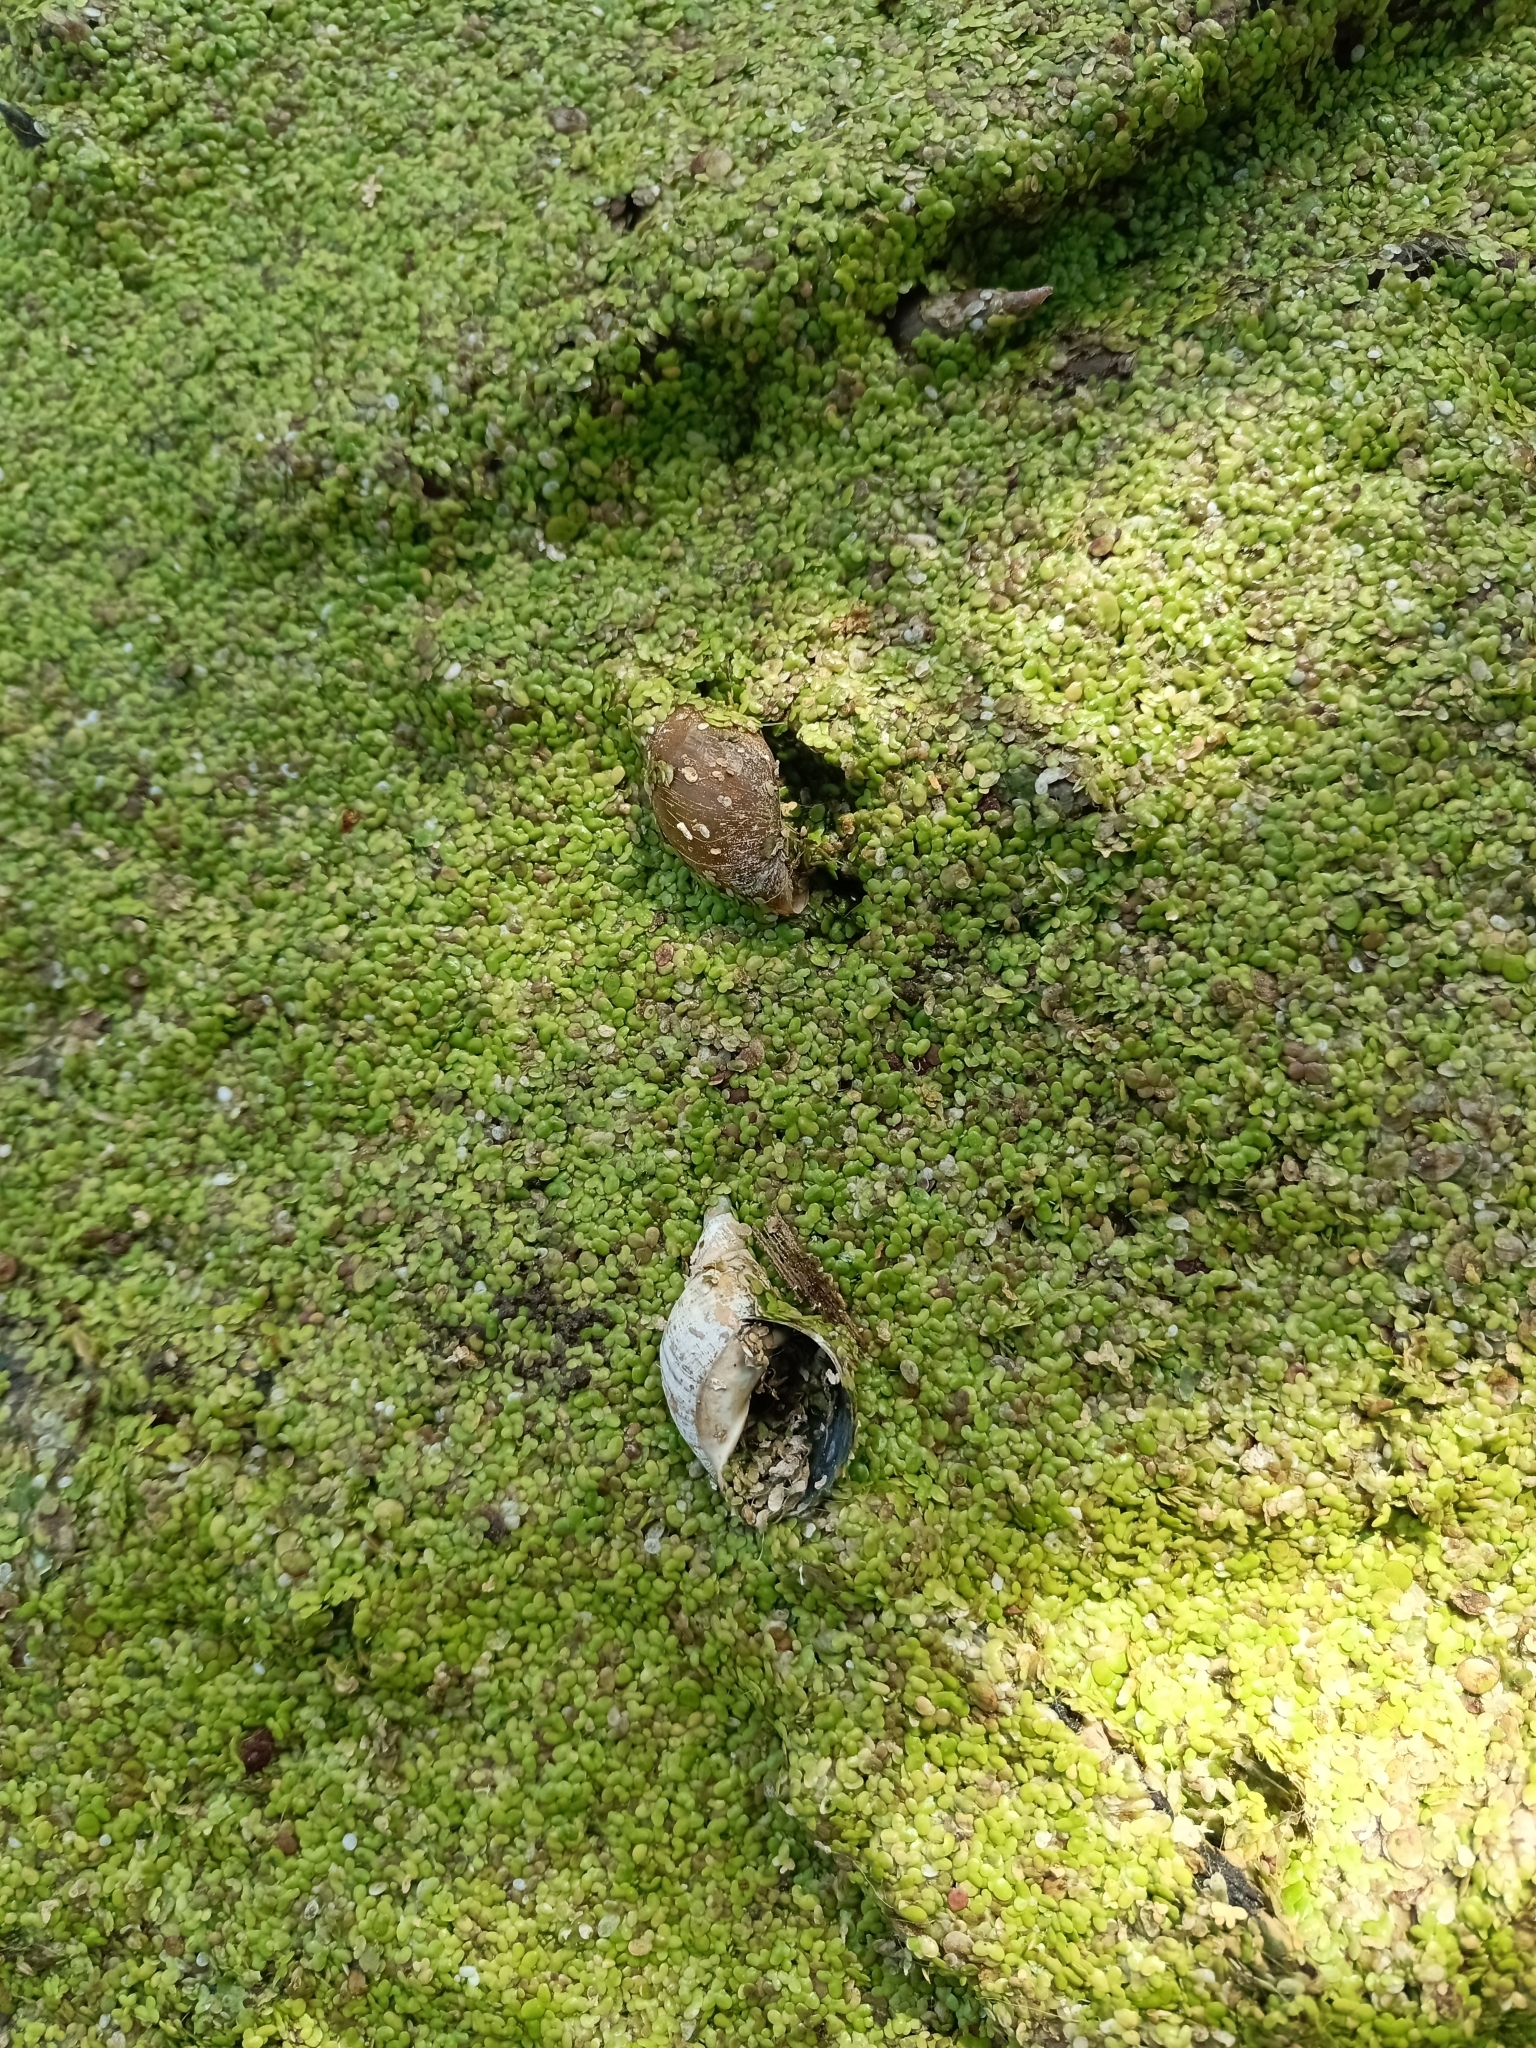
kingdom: Animalia
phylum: Mollusca
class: Gastropoda
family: Lymnaeidae
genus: Lymnaea
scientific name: Lymnaea stagnalis
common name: Great pond snail
